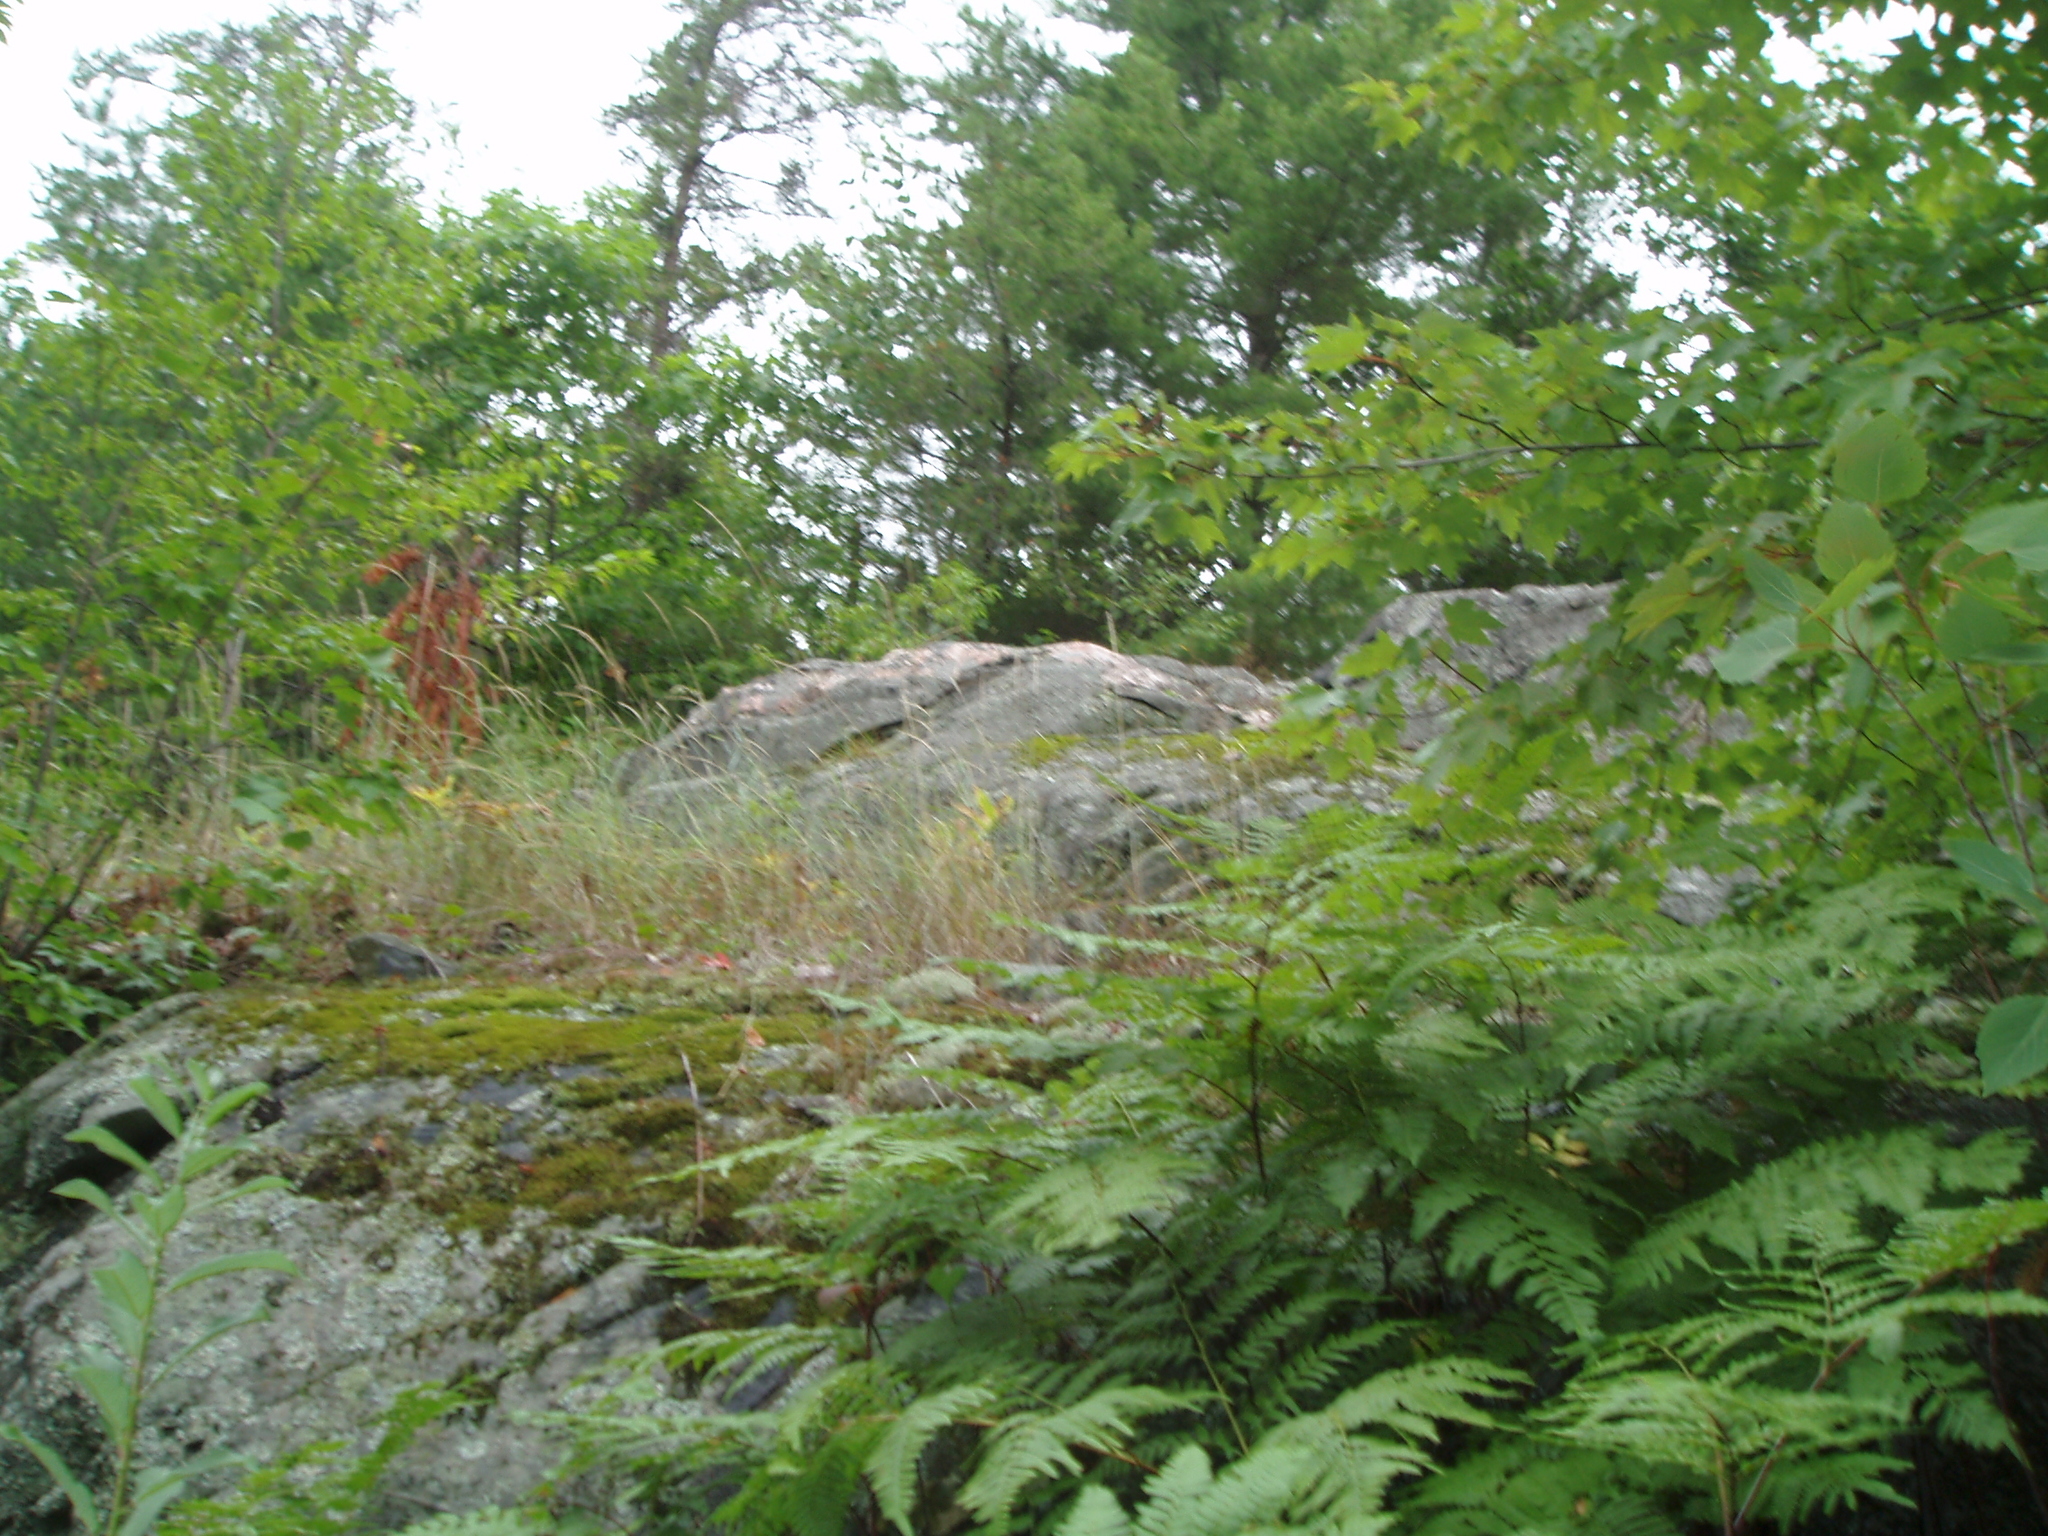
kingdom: Plantae
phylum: Tracheophyta
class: Polypodiopsida
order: Polypodiales
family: Dennstaedtiaceae
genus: Pteridium
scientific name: Pteridium aquilinum
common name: Bracken
